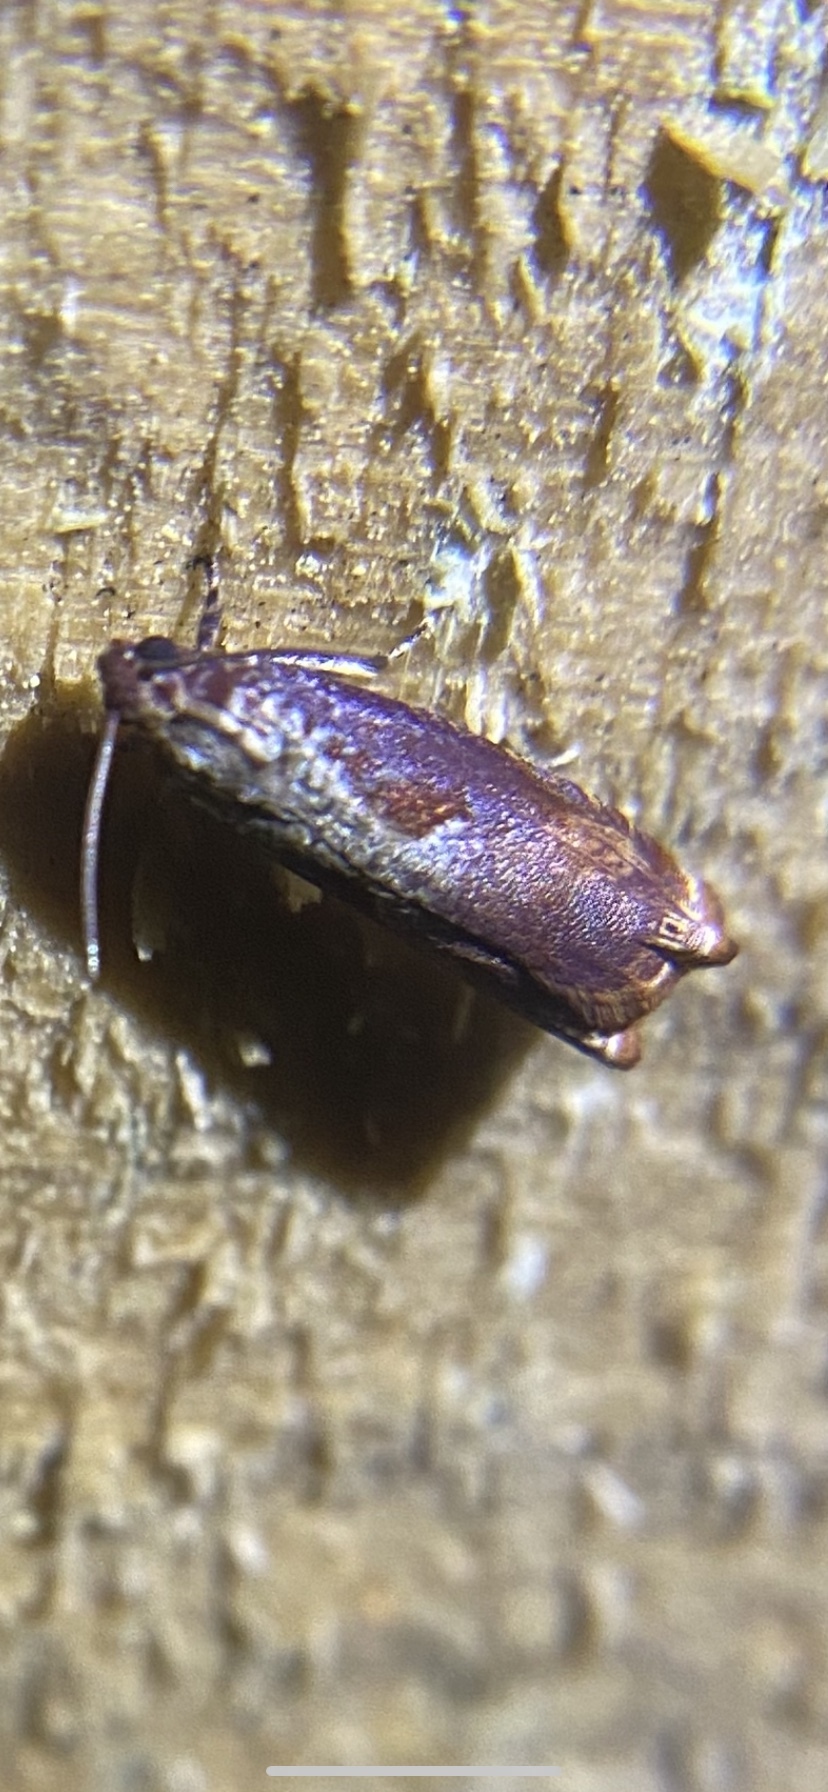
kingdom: Animalia
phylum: Arthropoda
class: Insecta
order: Lepidoptera
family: Tortricidae
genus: Episimus
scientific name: Episimus tyrius
